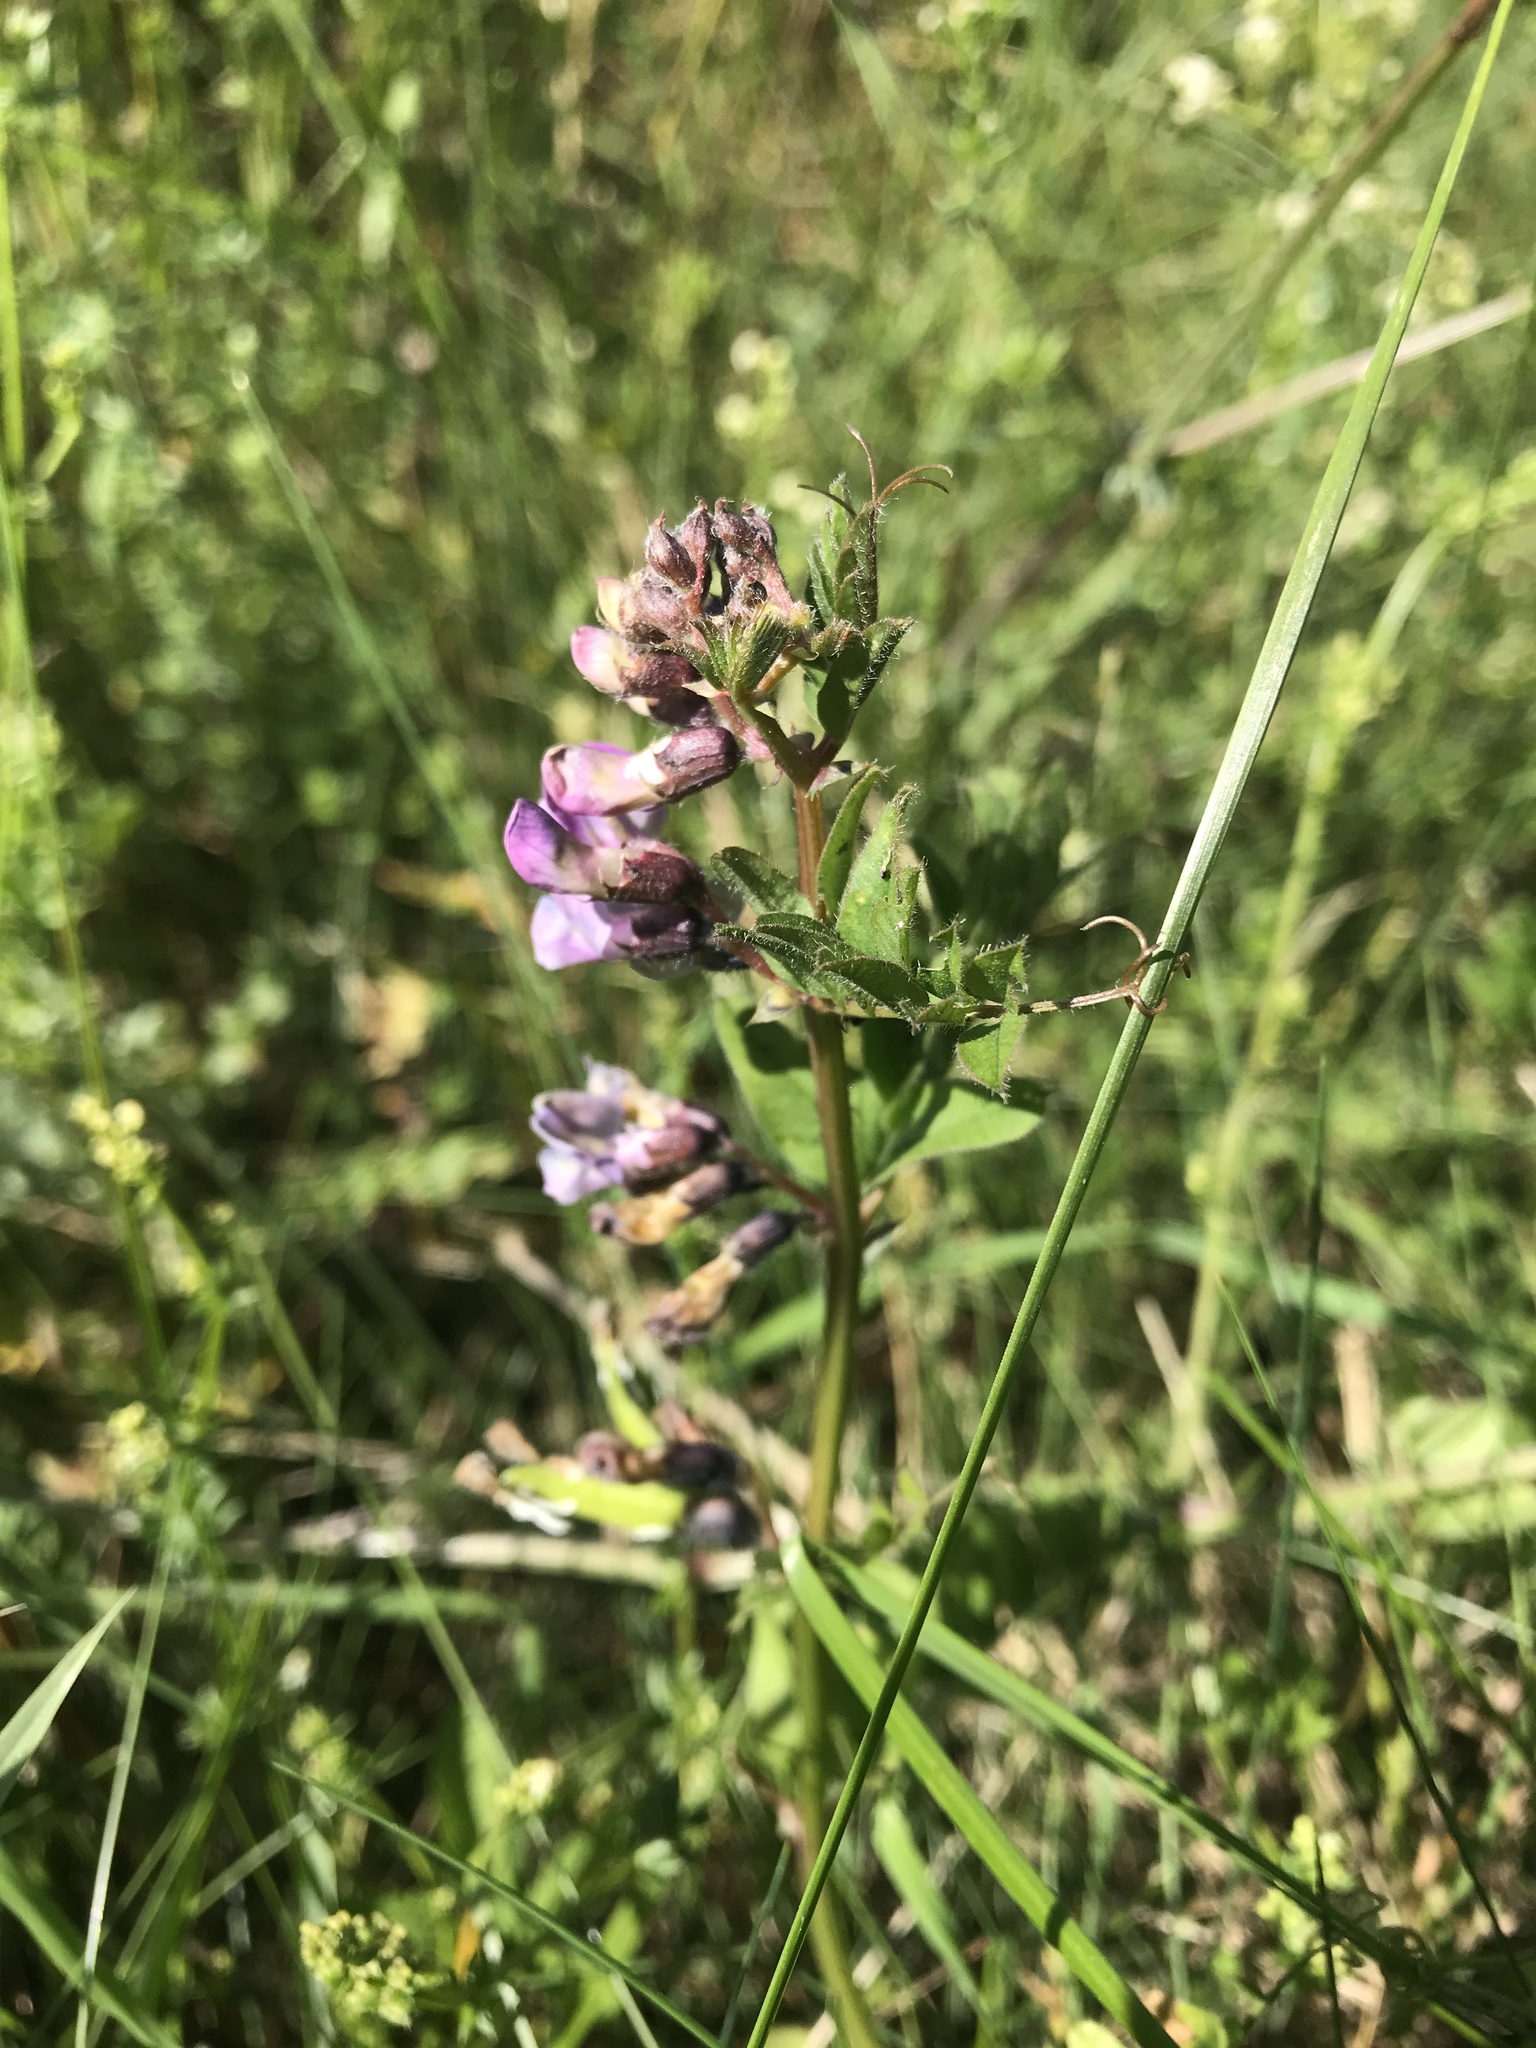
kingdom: Plantae
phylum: Tracheophyta
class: Magnoliopsida
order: Fabales
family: Fabaceae
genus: Vicia
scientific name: Vicia sepium
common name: Bush vetch
